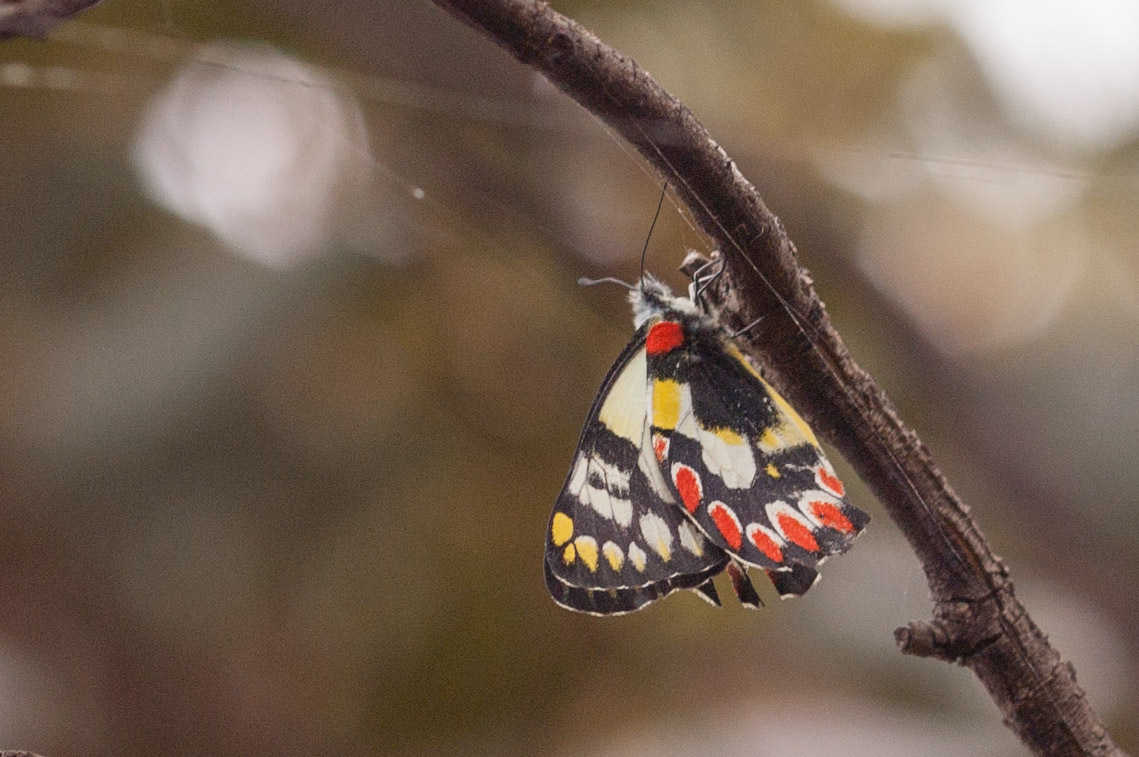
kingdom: Animalia
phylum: Arthropoda
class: Insecta
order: Lepidoptera
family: Pieridae
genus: Delias
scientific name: Delias aganippe
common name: Red-spotted jezebel
